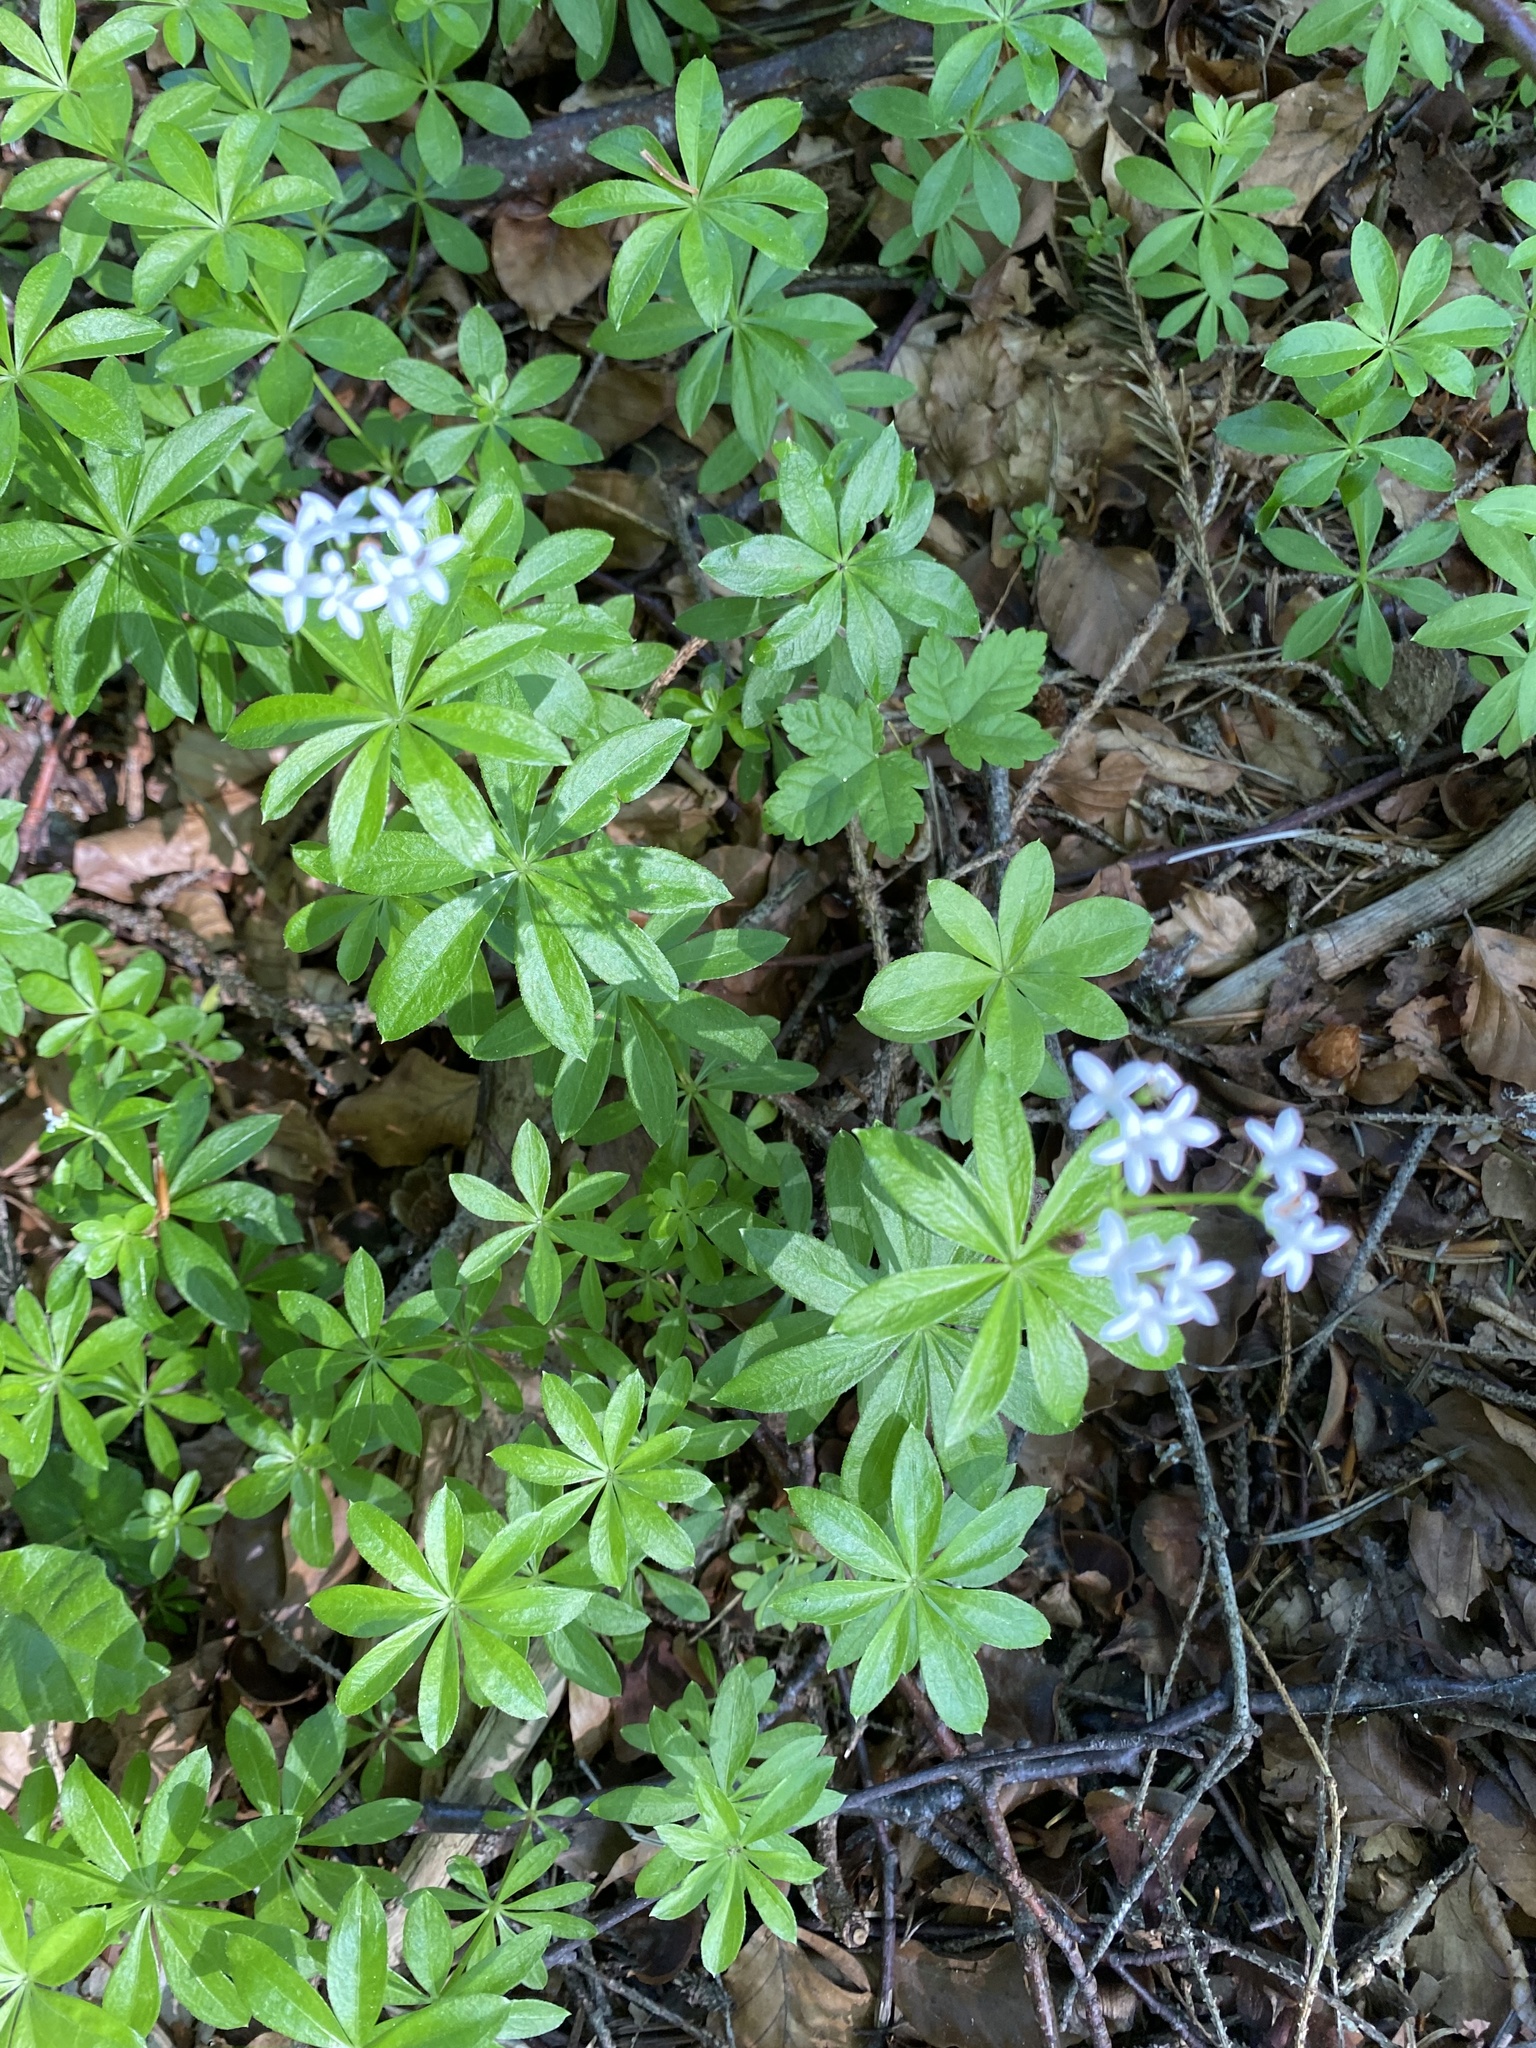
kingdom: Plantae
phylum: Tracheophyta
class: Magnoliopsida
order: Gentianales
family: Rubiaceae
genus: Galium
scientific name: Galium odoratum
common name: Sweet woodruff
